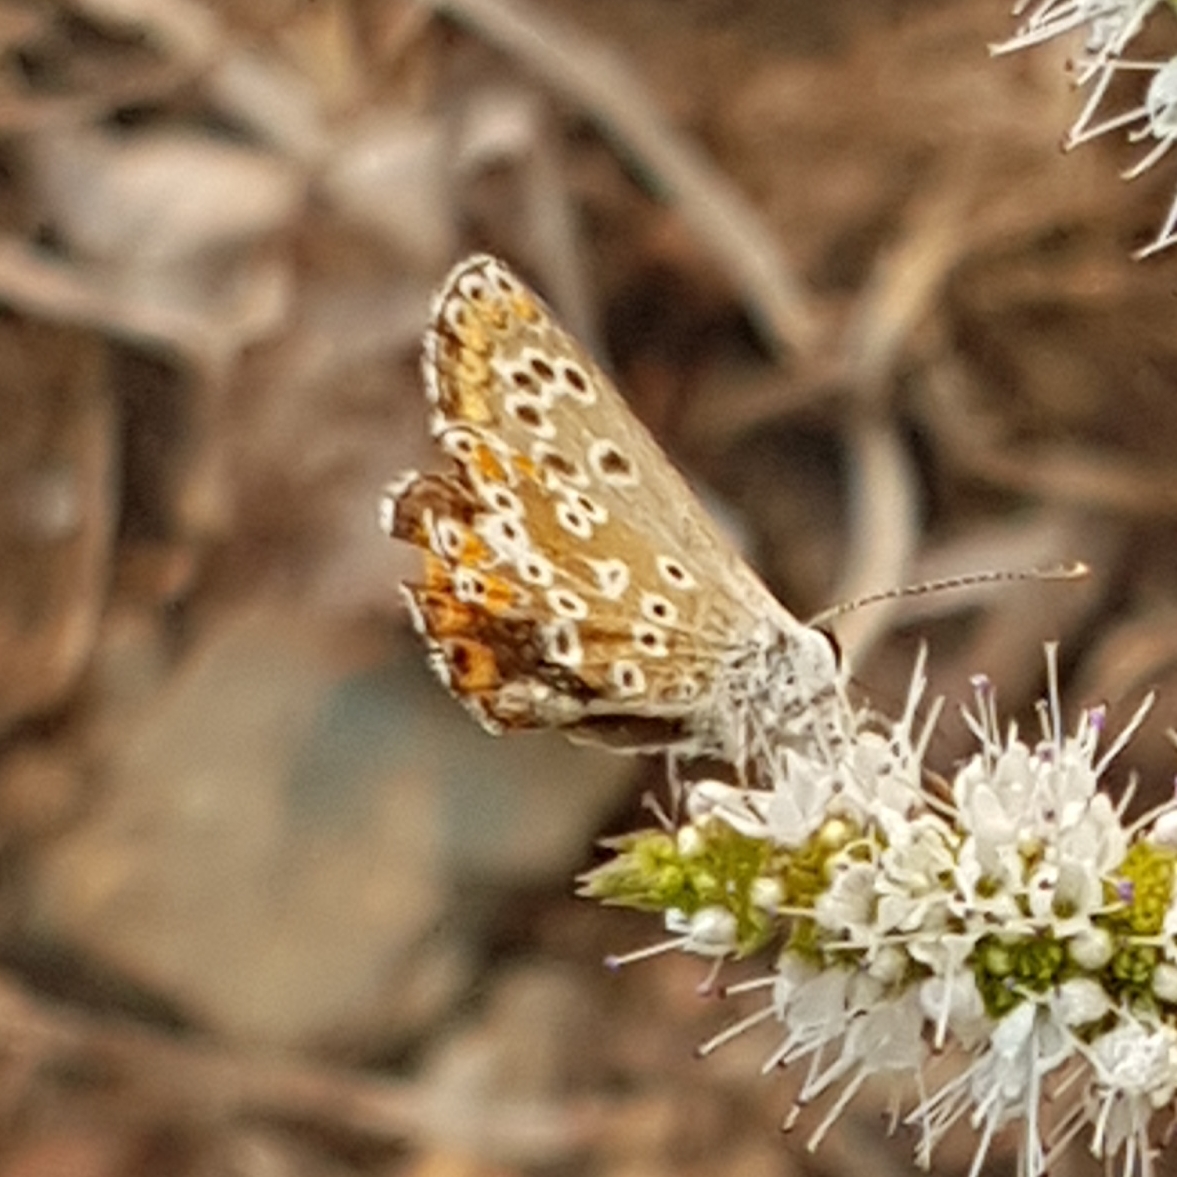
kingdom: Animalia
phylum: Arthropoda
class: Insecta
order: Lepidoptera
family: Lycaenidae
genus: Aricia
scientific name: Aricia cramera
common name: Eschscholtz´s brown  argus
